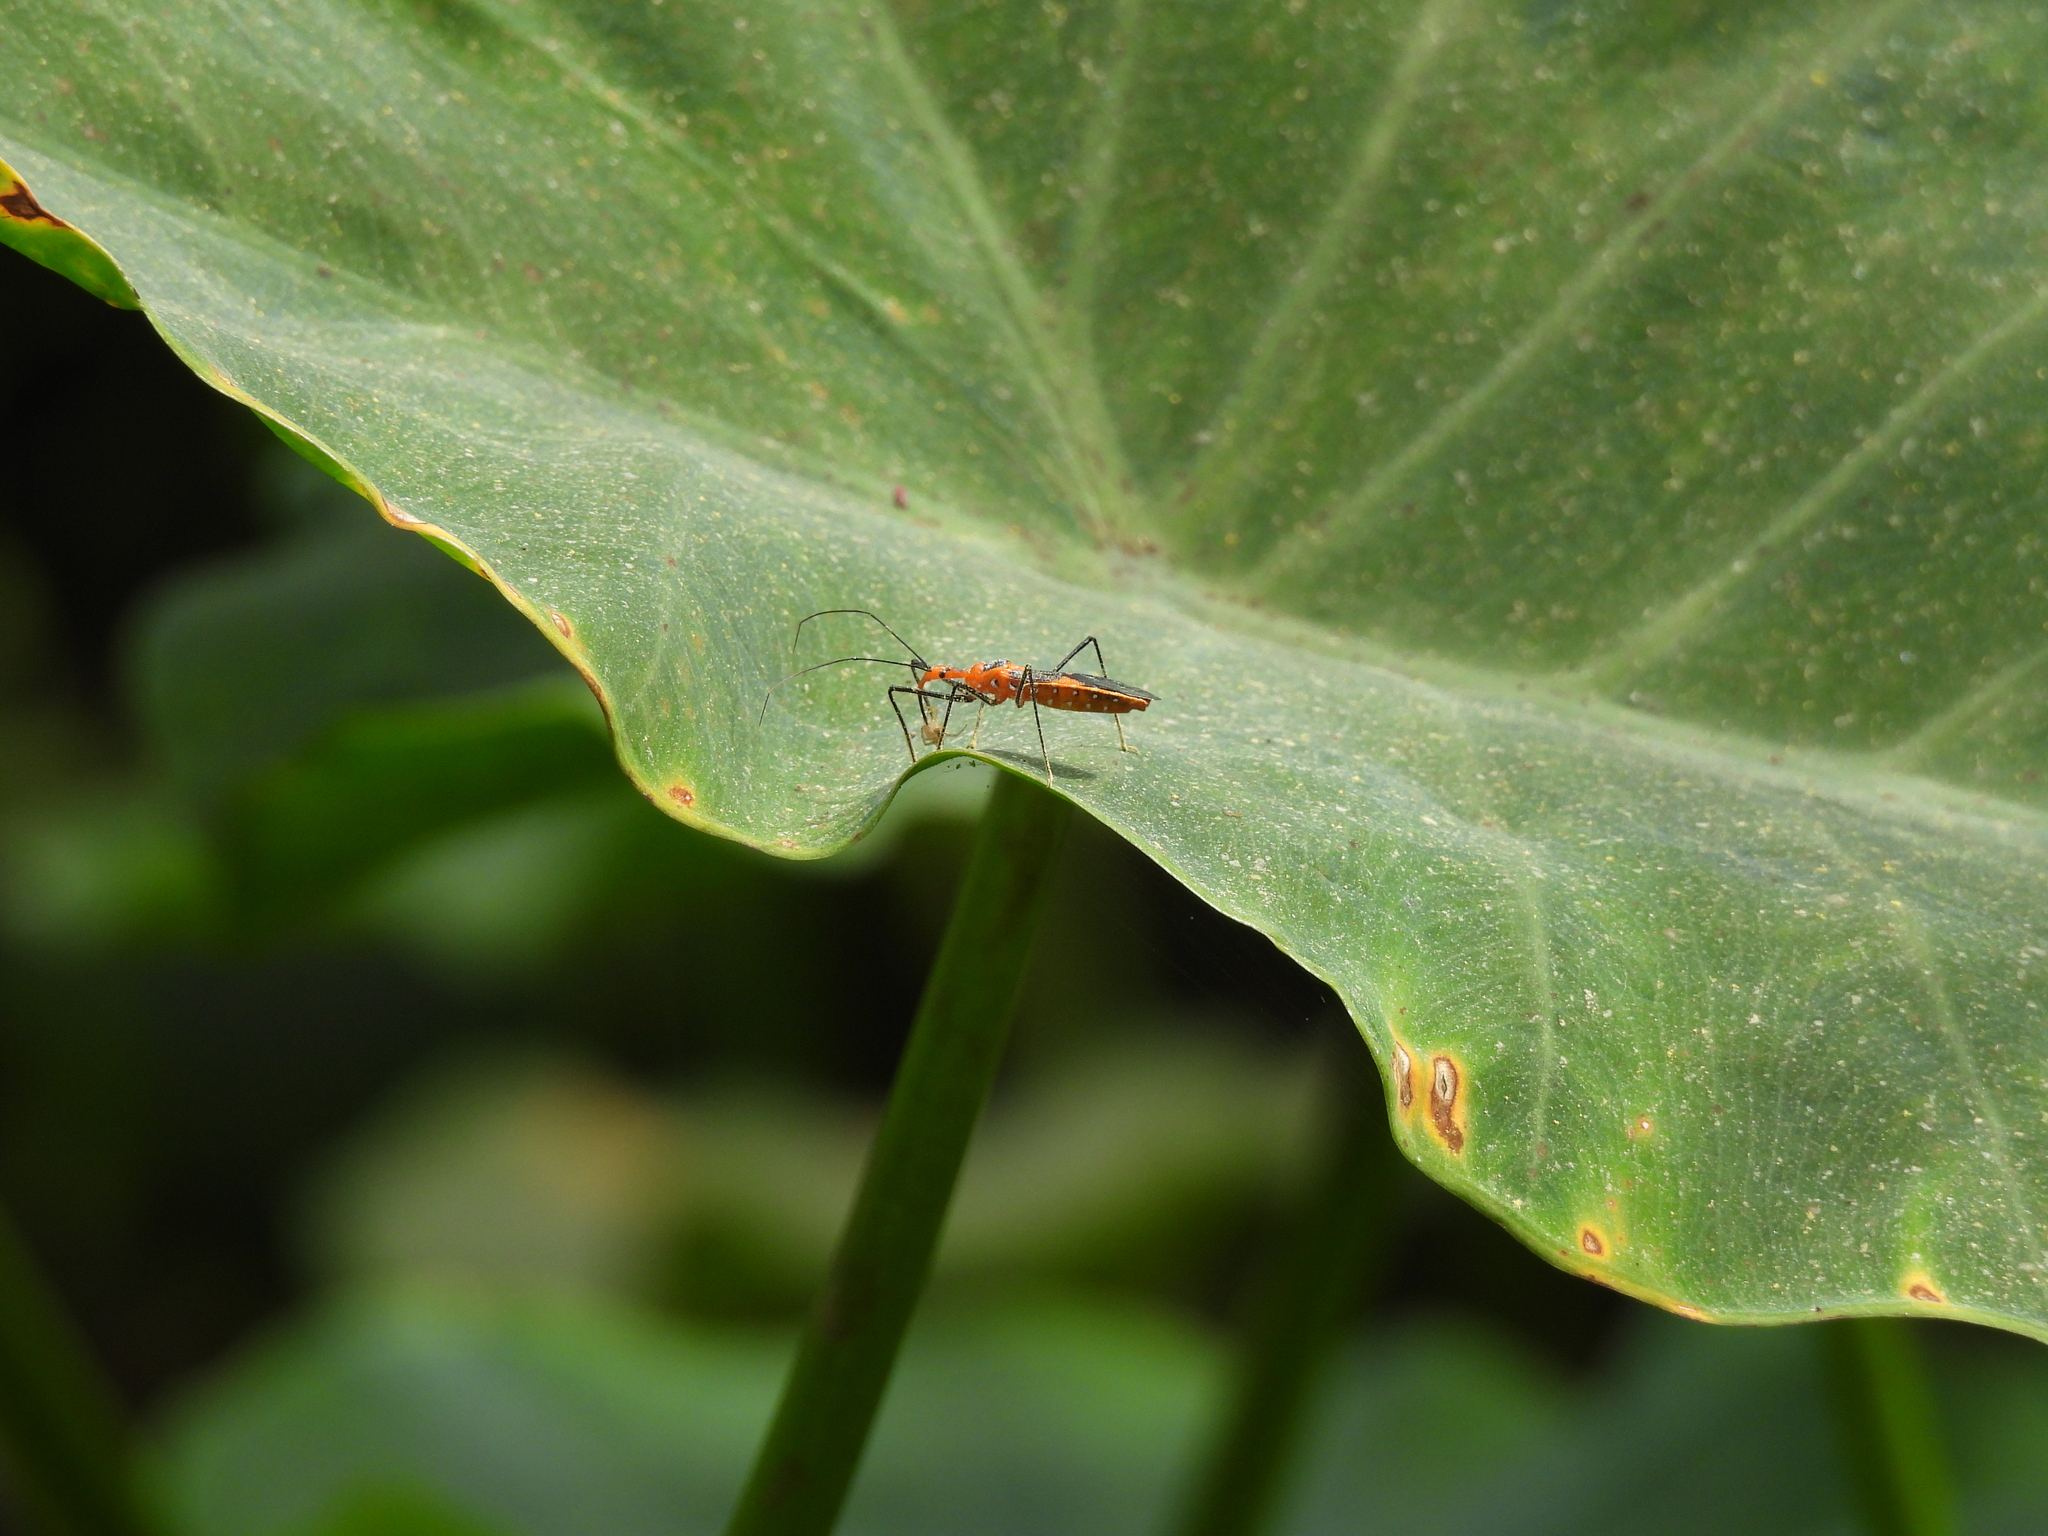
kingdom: Animalia
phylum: Arthropoda
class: Insecta
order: Hemiptera
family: Reduviidae
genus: Zelus
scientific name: Zelus longipes
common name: Milkweed assassin bug
